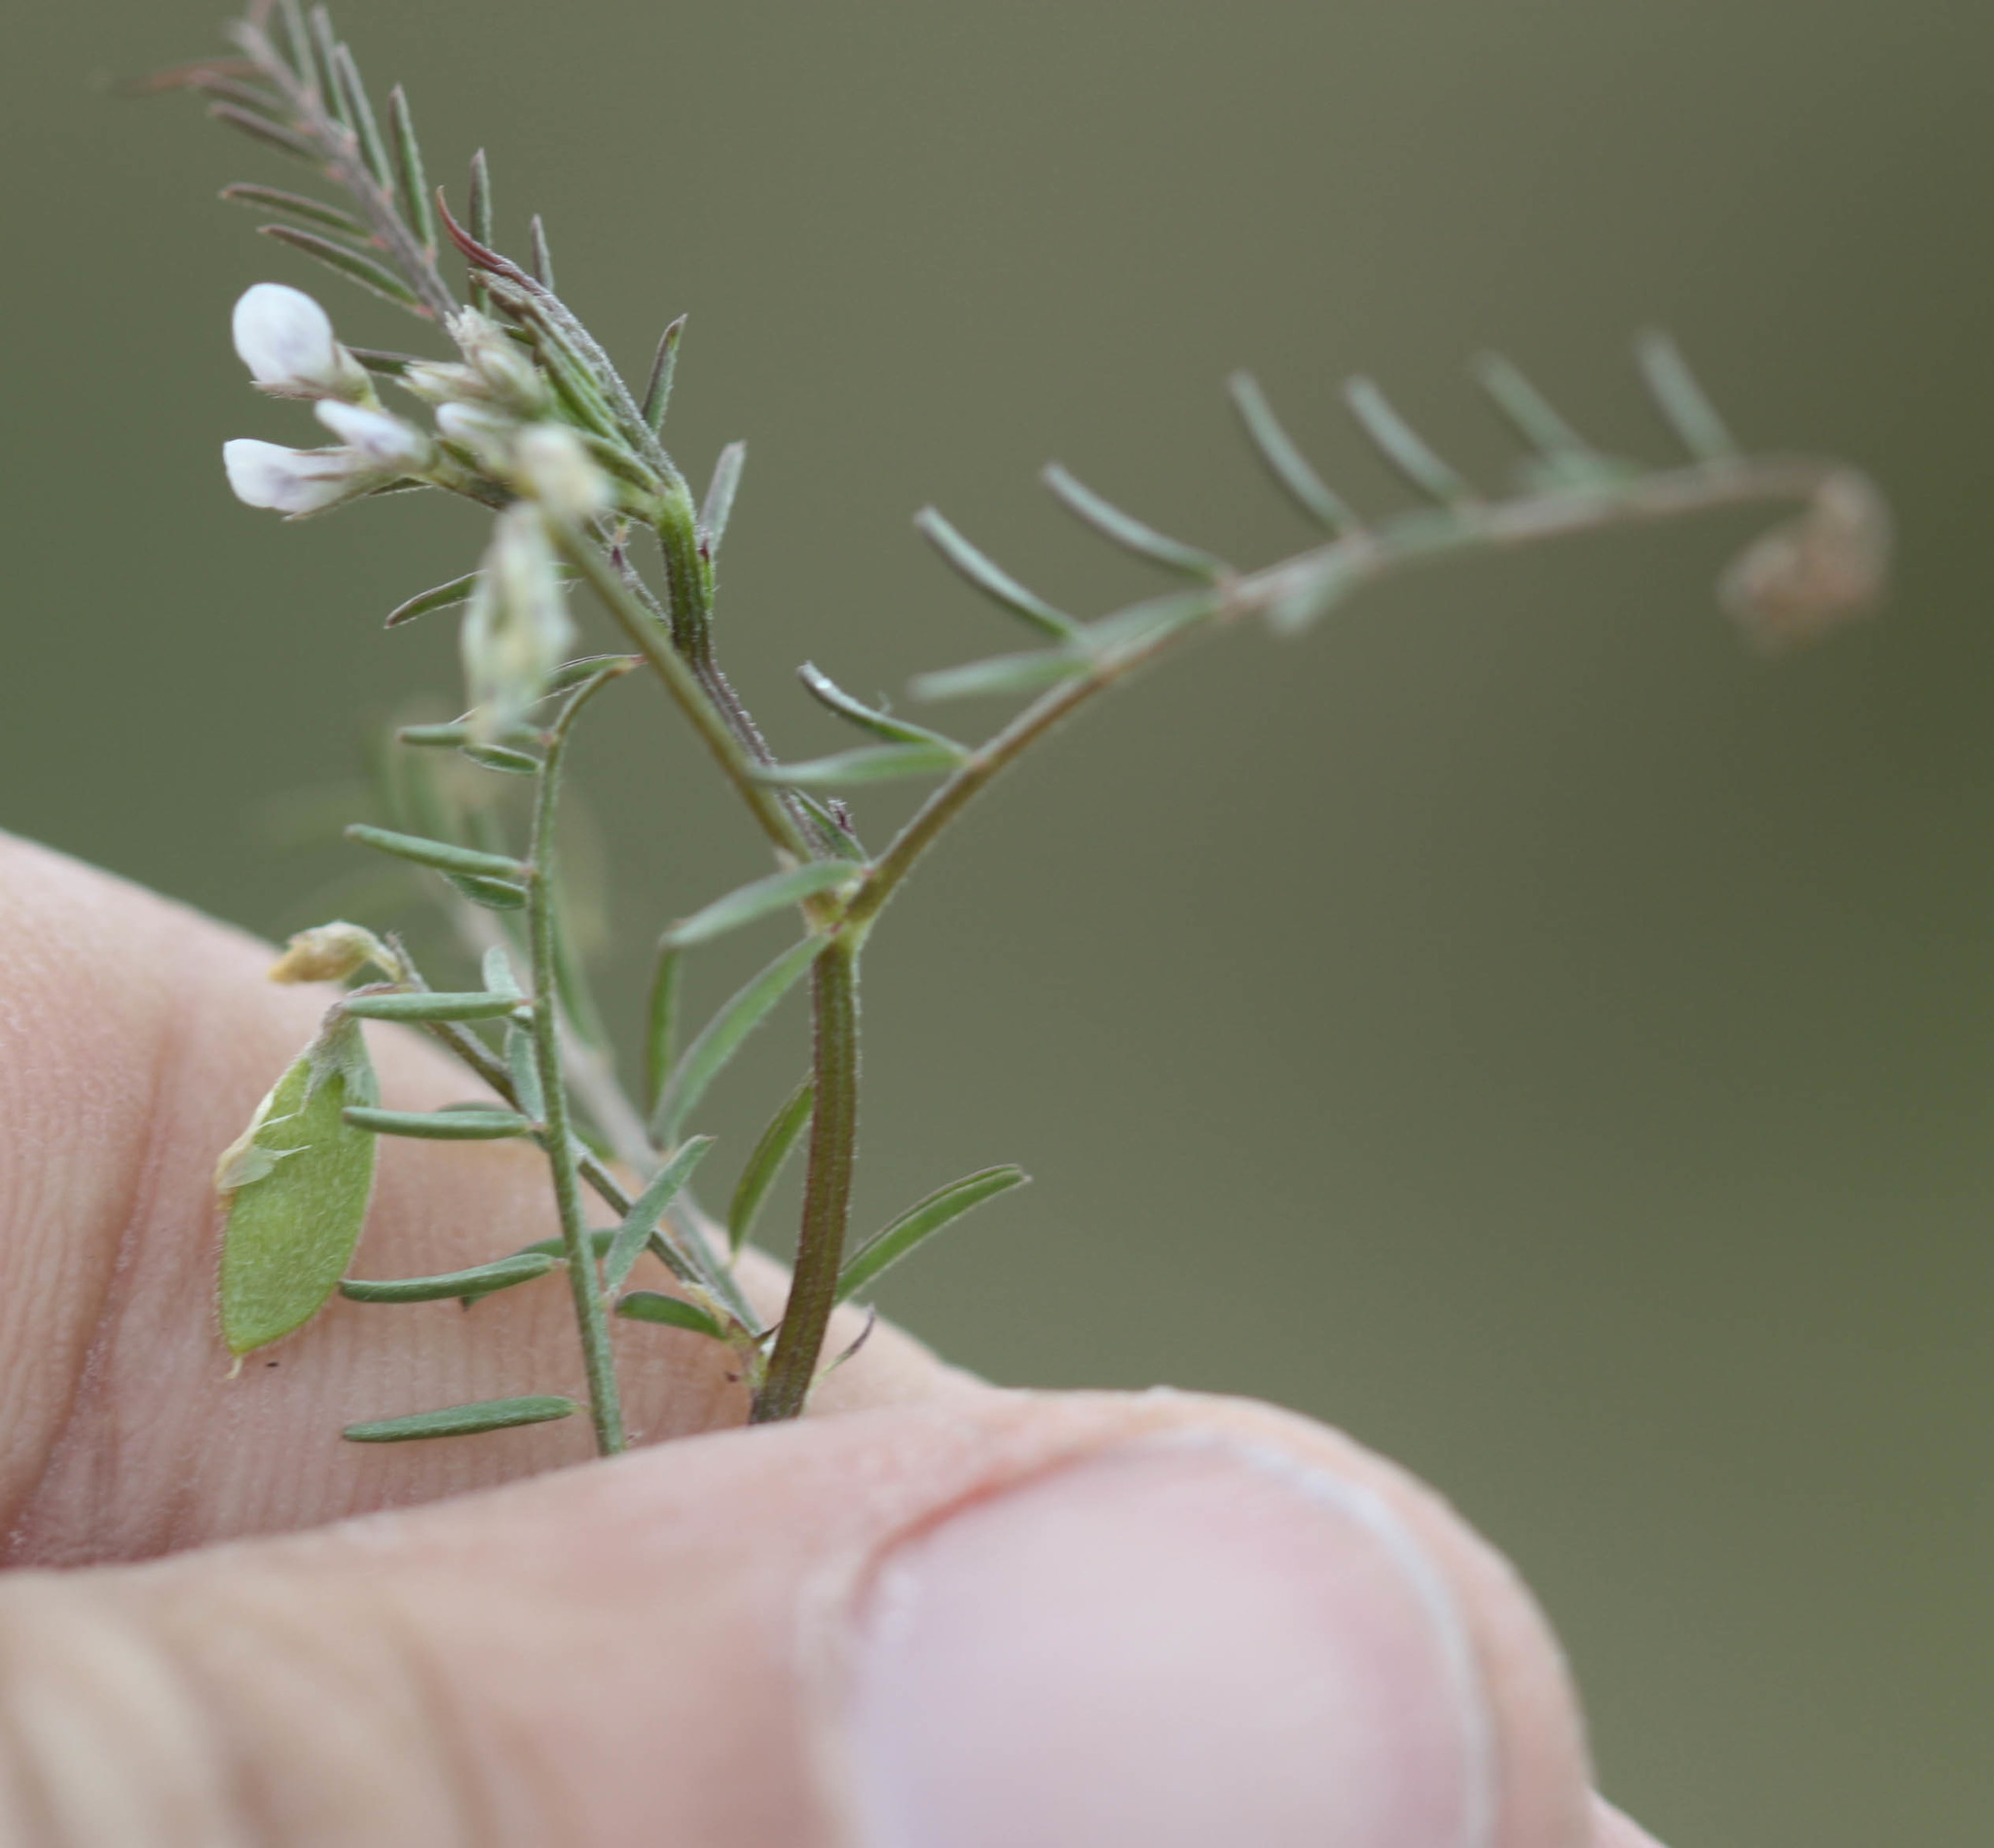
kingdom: Plantae
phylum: Tracheophyta
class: Magnoliopsida
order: Fabales
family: Fabaceae
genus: Vicia
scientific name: Vicia hirsuta
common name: Tiny vetch
